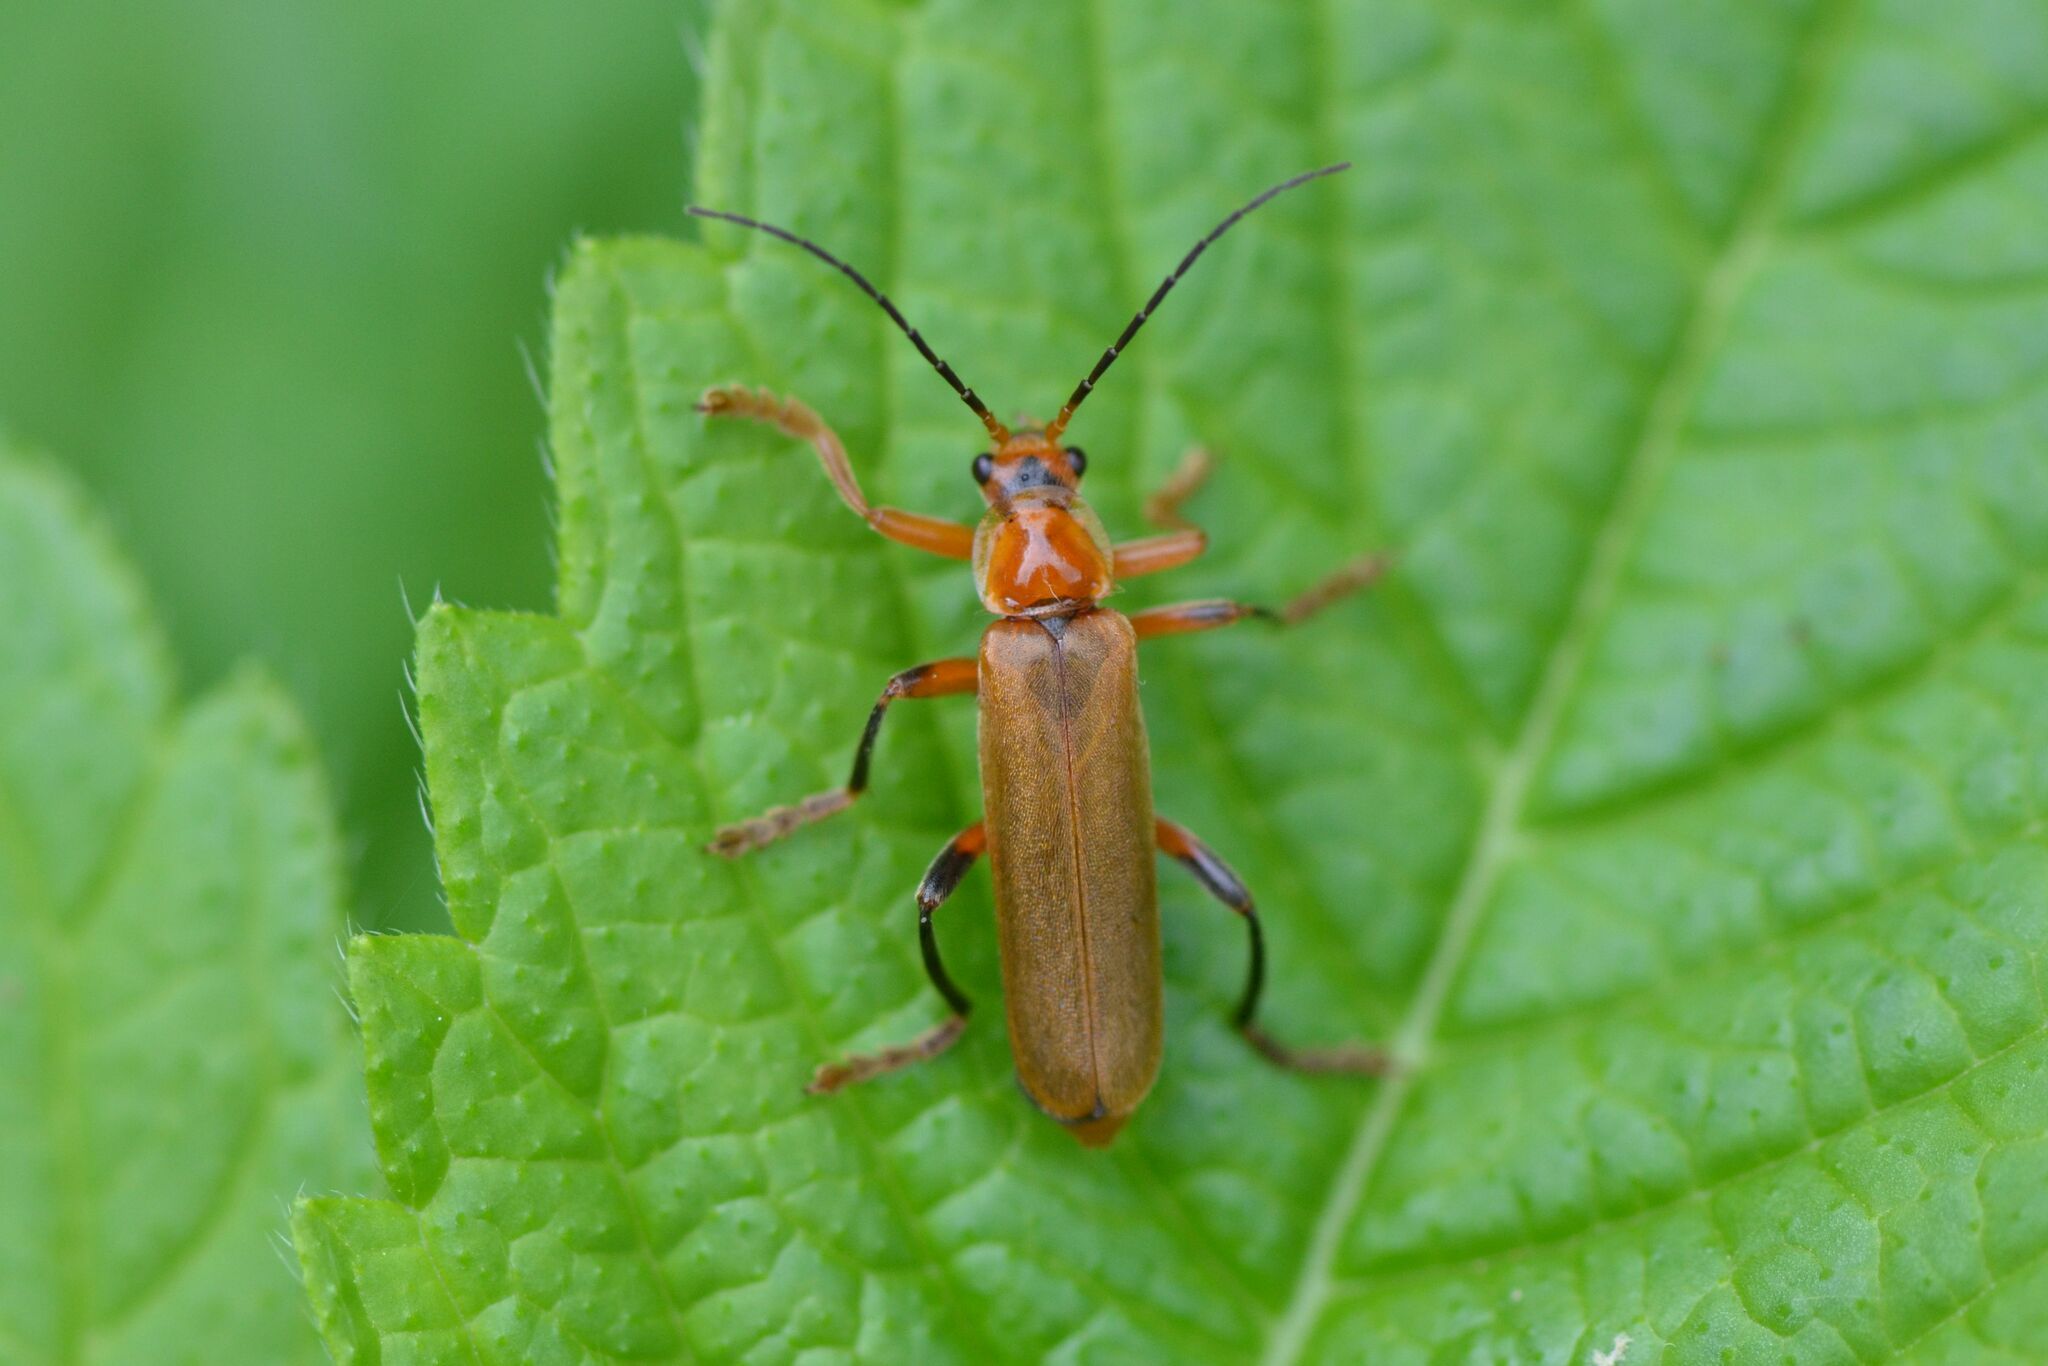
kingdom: Animalia
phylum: Arthropoda
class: Insecta
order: Coleoptera
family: Cantharidae
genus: Cantharis
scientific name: Cantharis livida
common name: Livid soldier beetle
